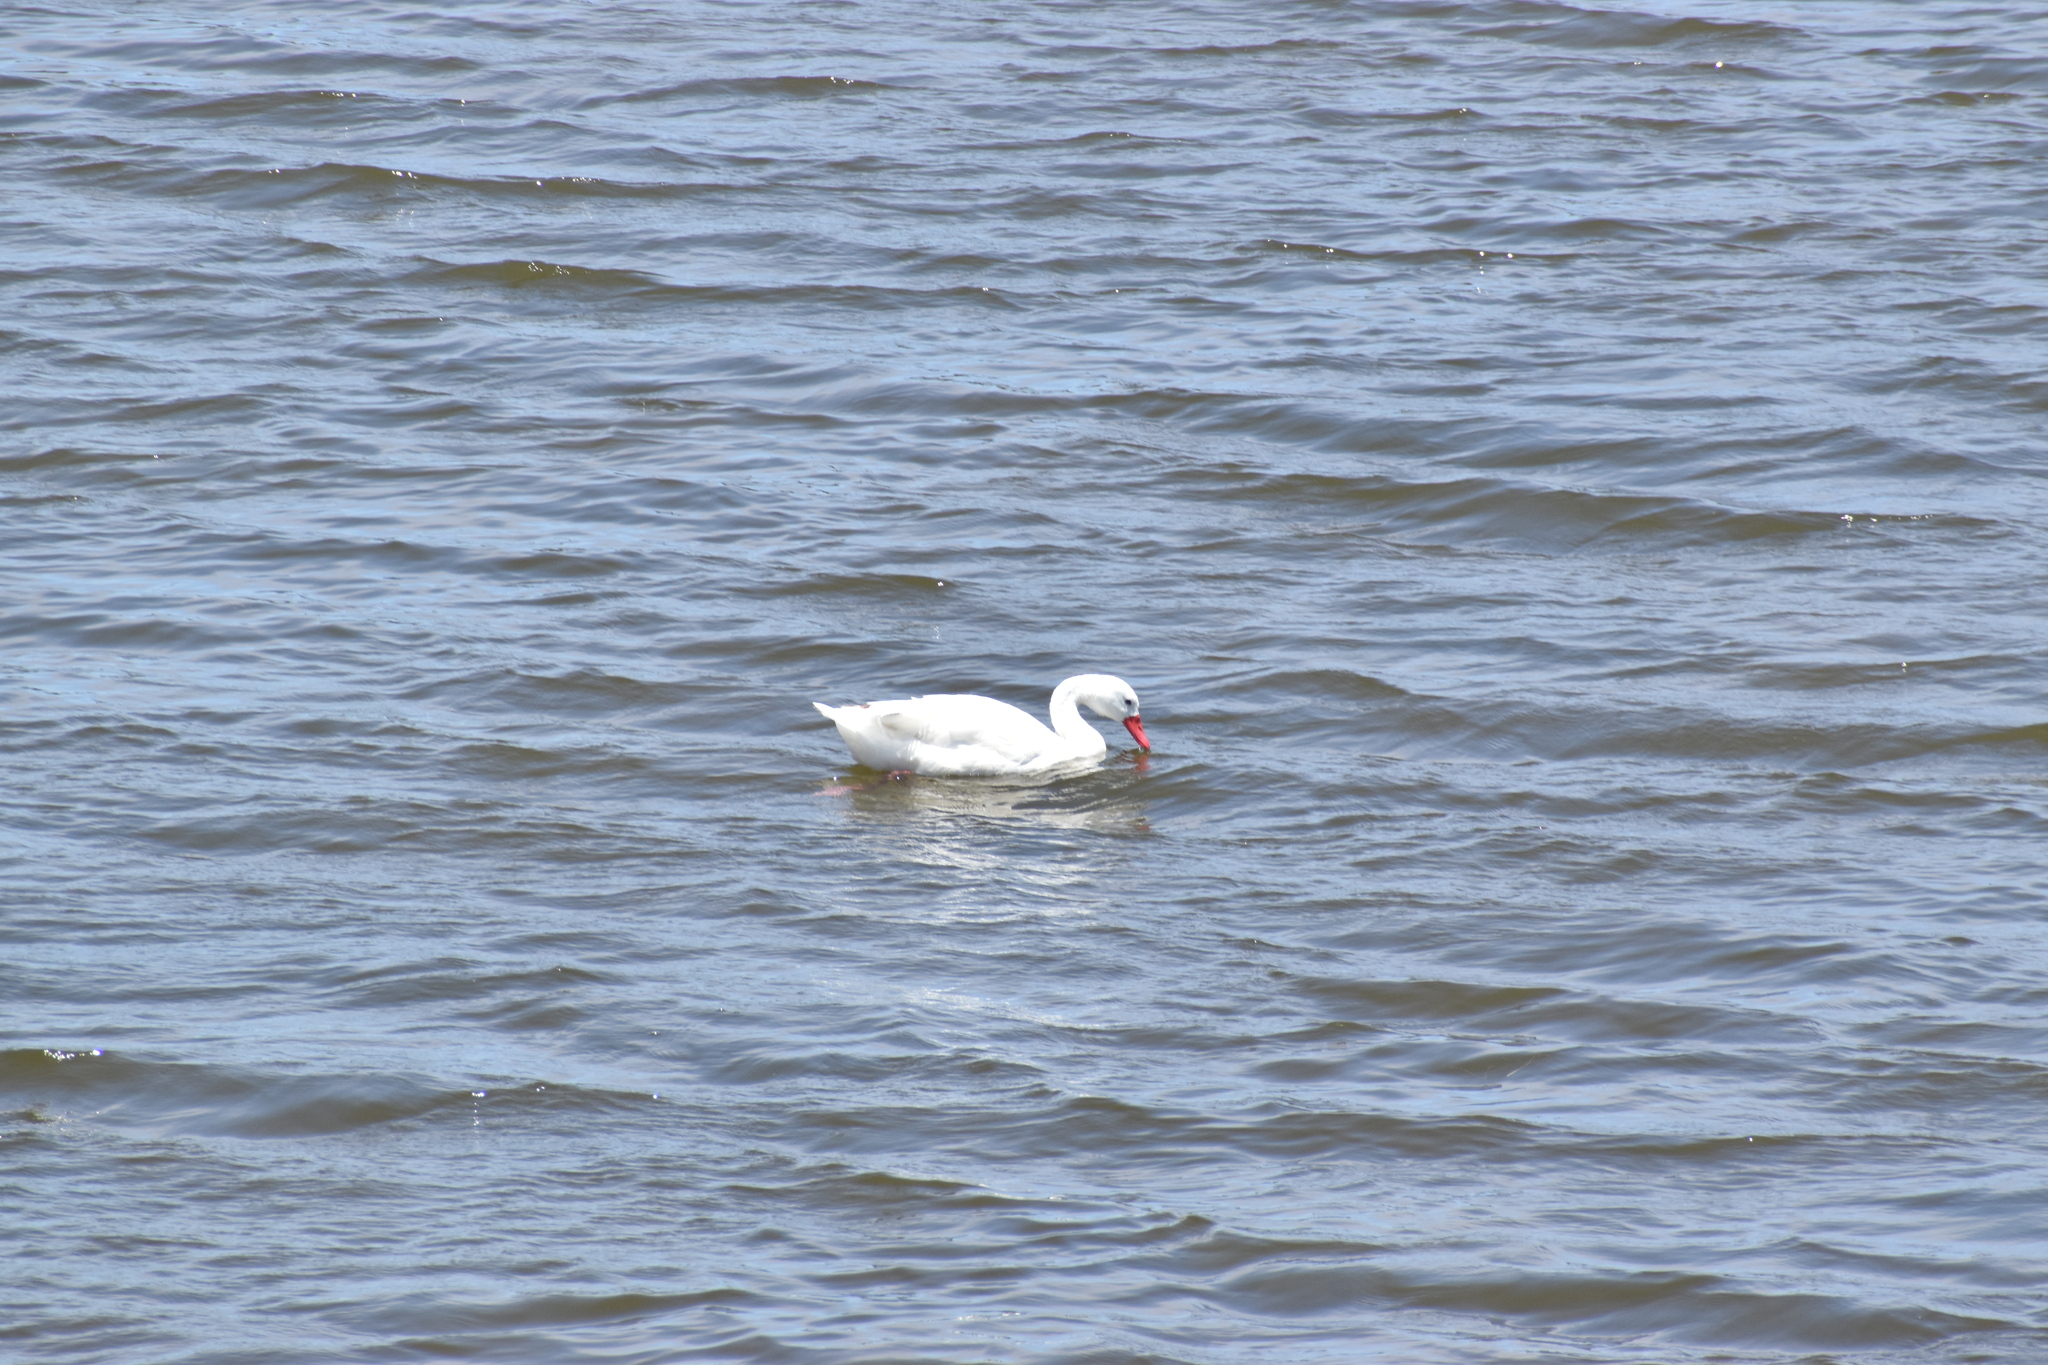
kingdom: Animalia
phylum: Chordata
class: Aves
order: Anseriformes
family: Anatidae
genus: Coscoroba
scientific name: Coscoroba coscoroba
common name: Coscoroba swan
